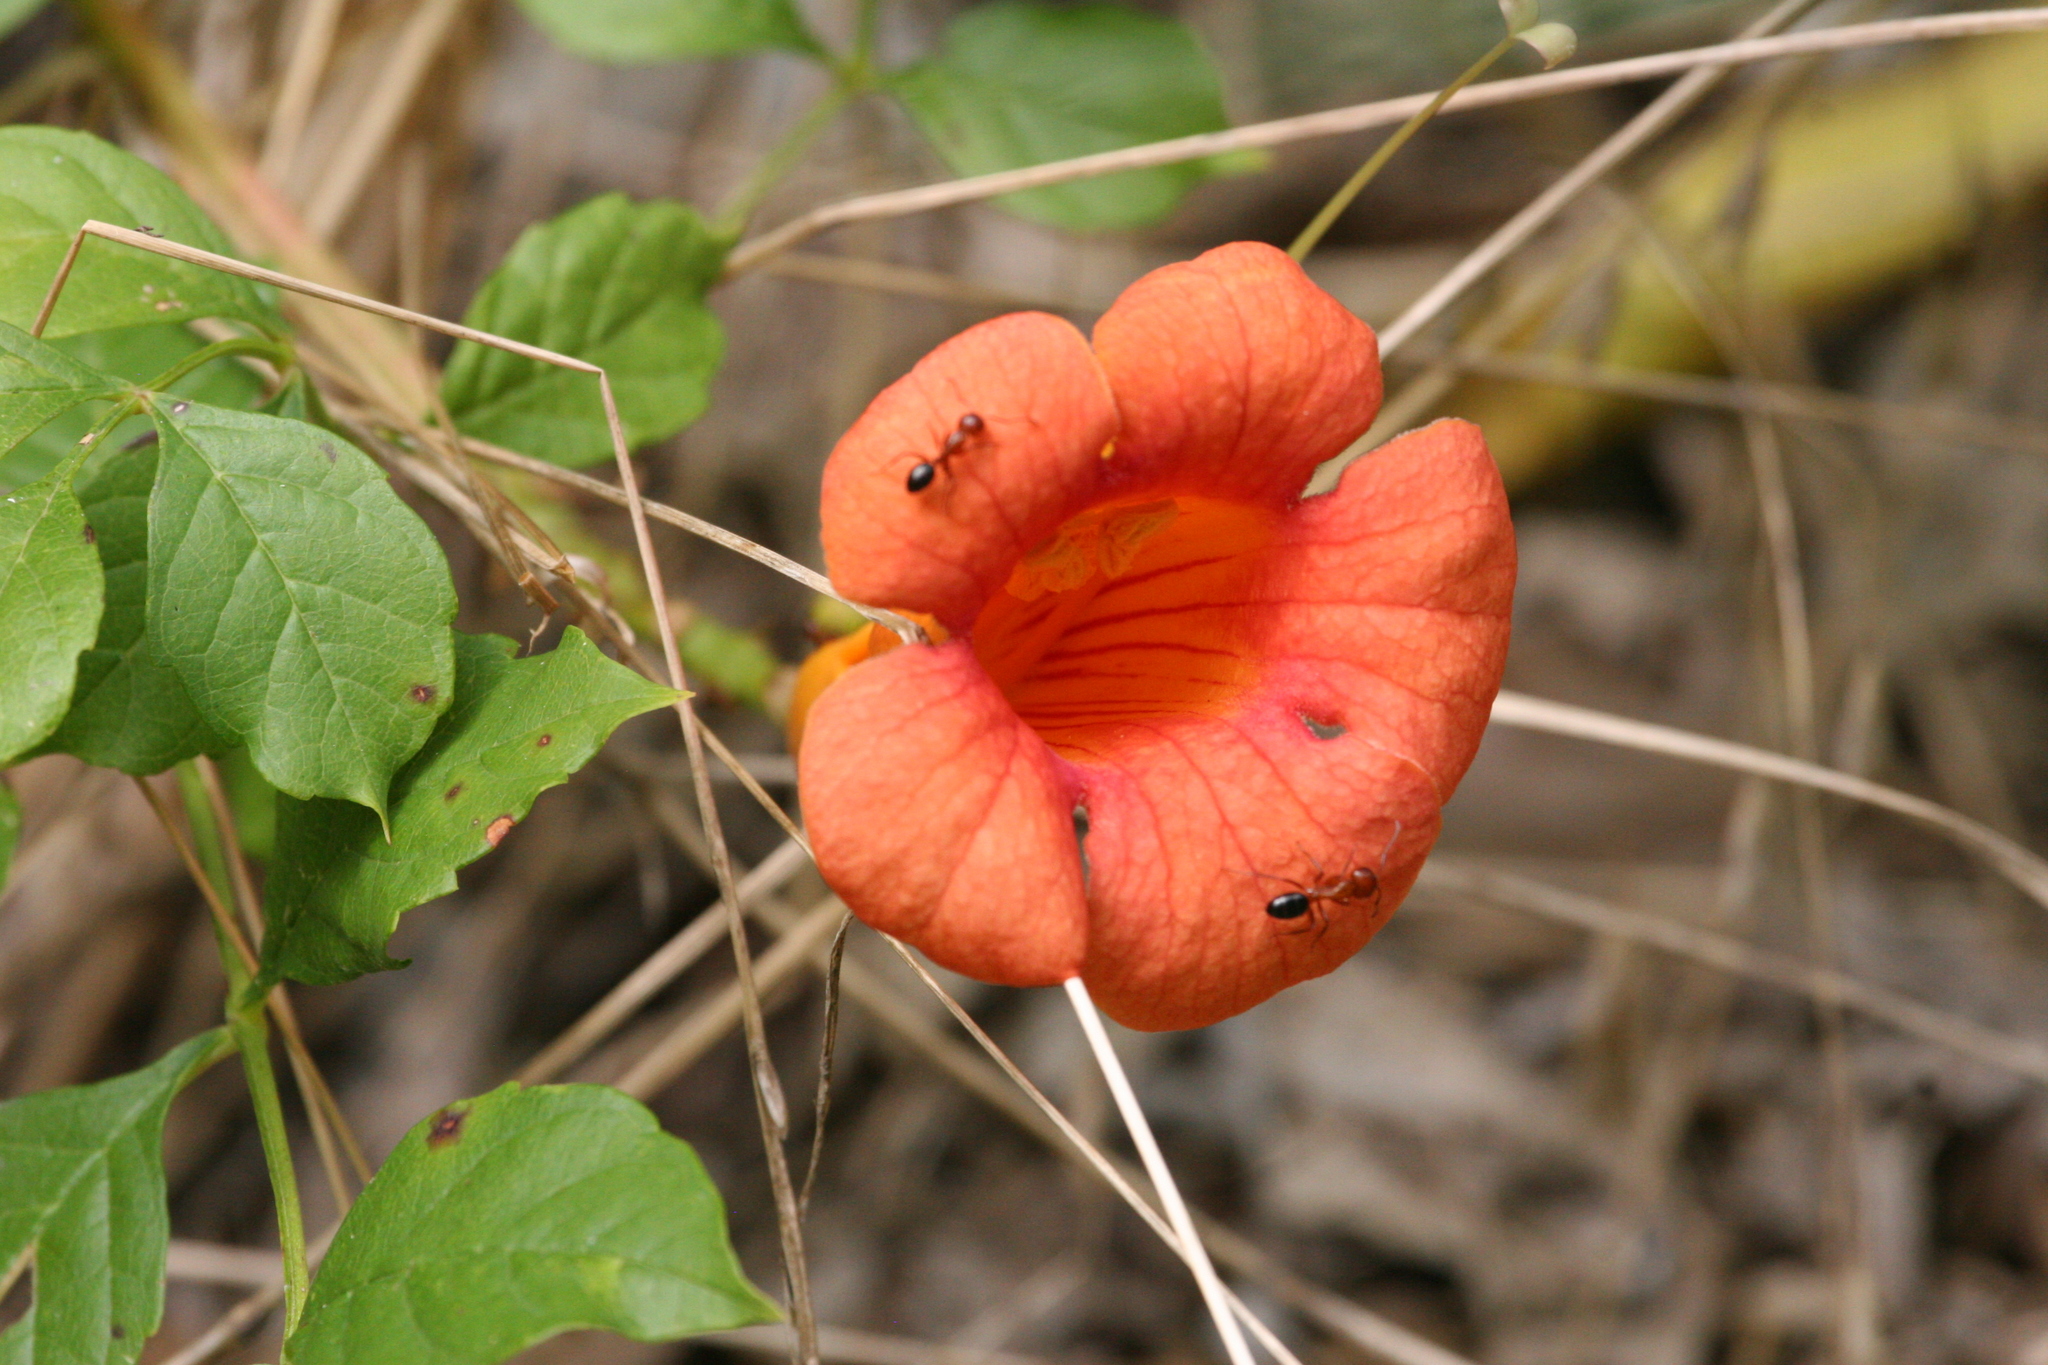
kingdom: Plantae
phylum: Tracheophyta
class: Magnoliopsida
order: Lamiales
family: Bignoniaceae
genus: Campsis
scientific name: Campsis radicans
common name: Trumpet-creeper
